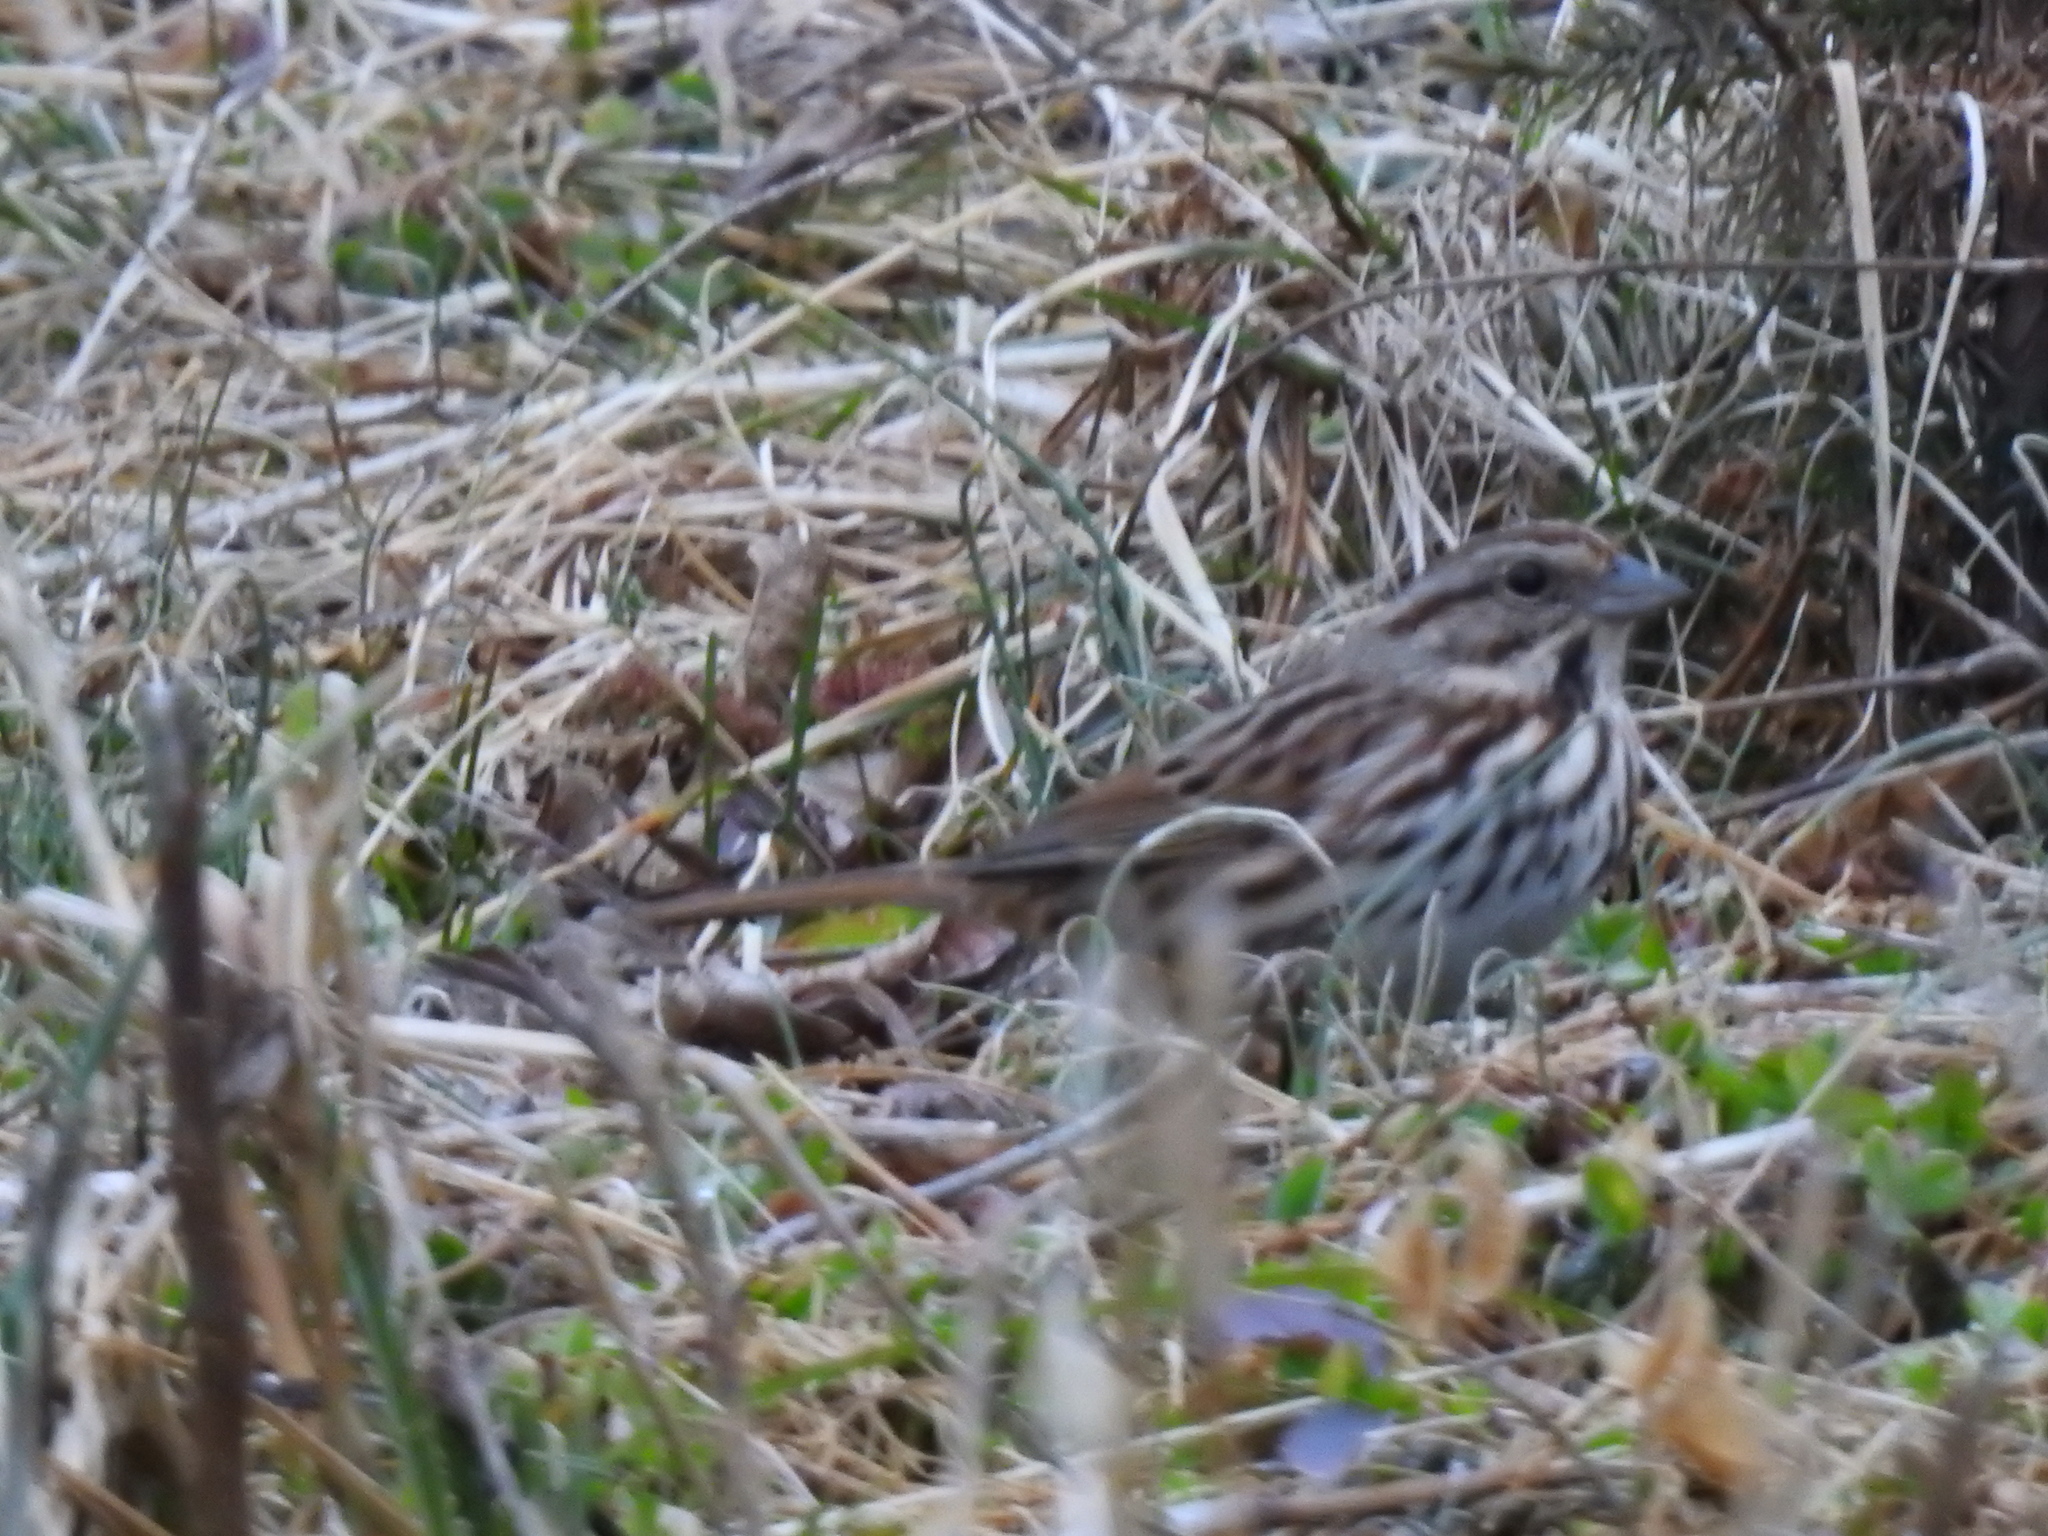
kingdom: Animalia
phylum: Chordata
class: Aves
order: Passeriformes
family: Passerellidae
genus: Melospiza
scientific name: Melospiza melodia
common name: Song sparrow
